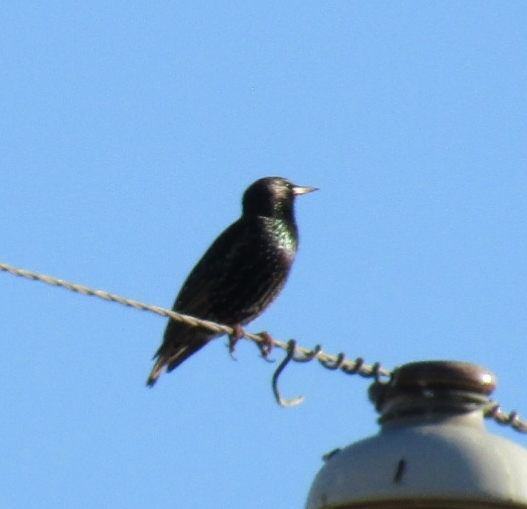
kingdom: Animalia
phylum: Chordata
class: Aves
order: Passeriformes
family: Sturnidae
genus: Sturnus
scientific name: Sturnus vulgaris
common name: Common starling
